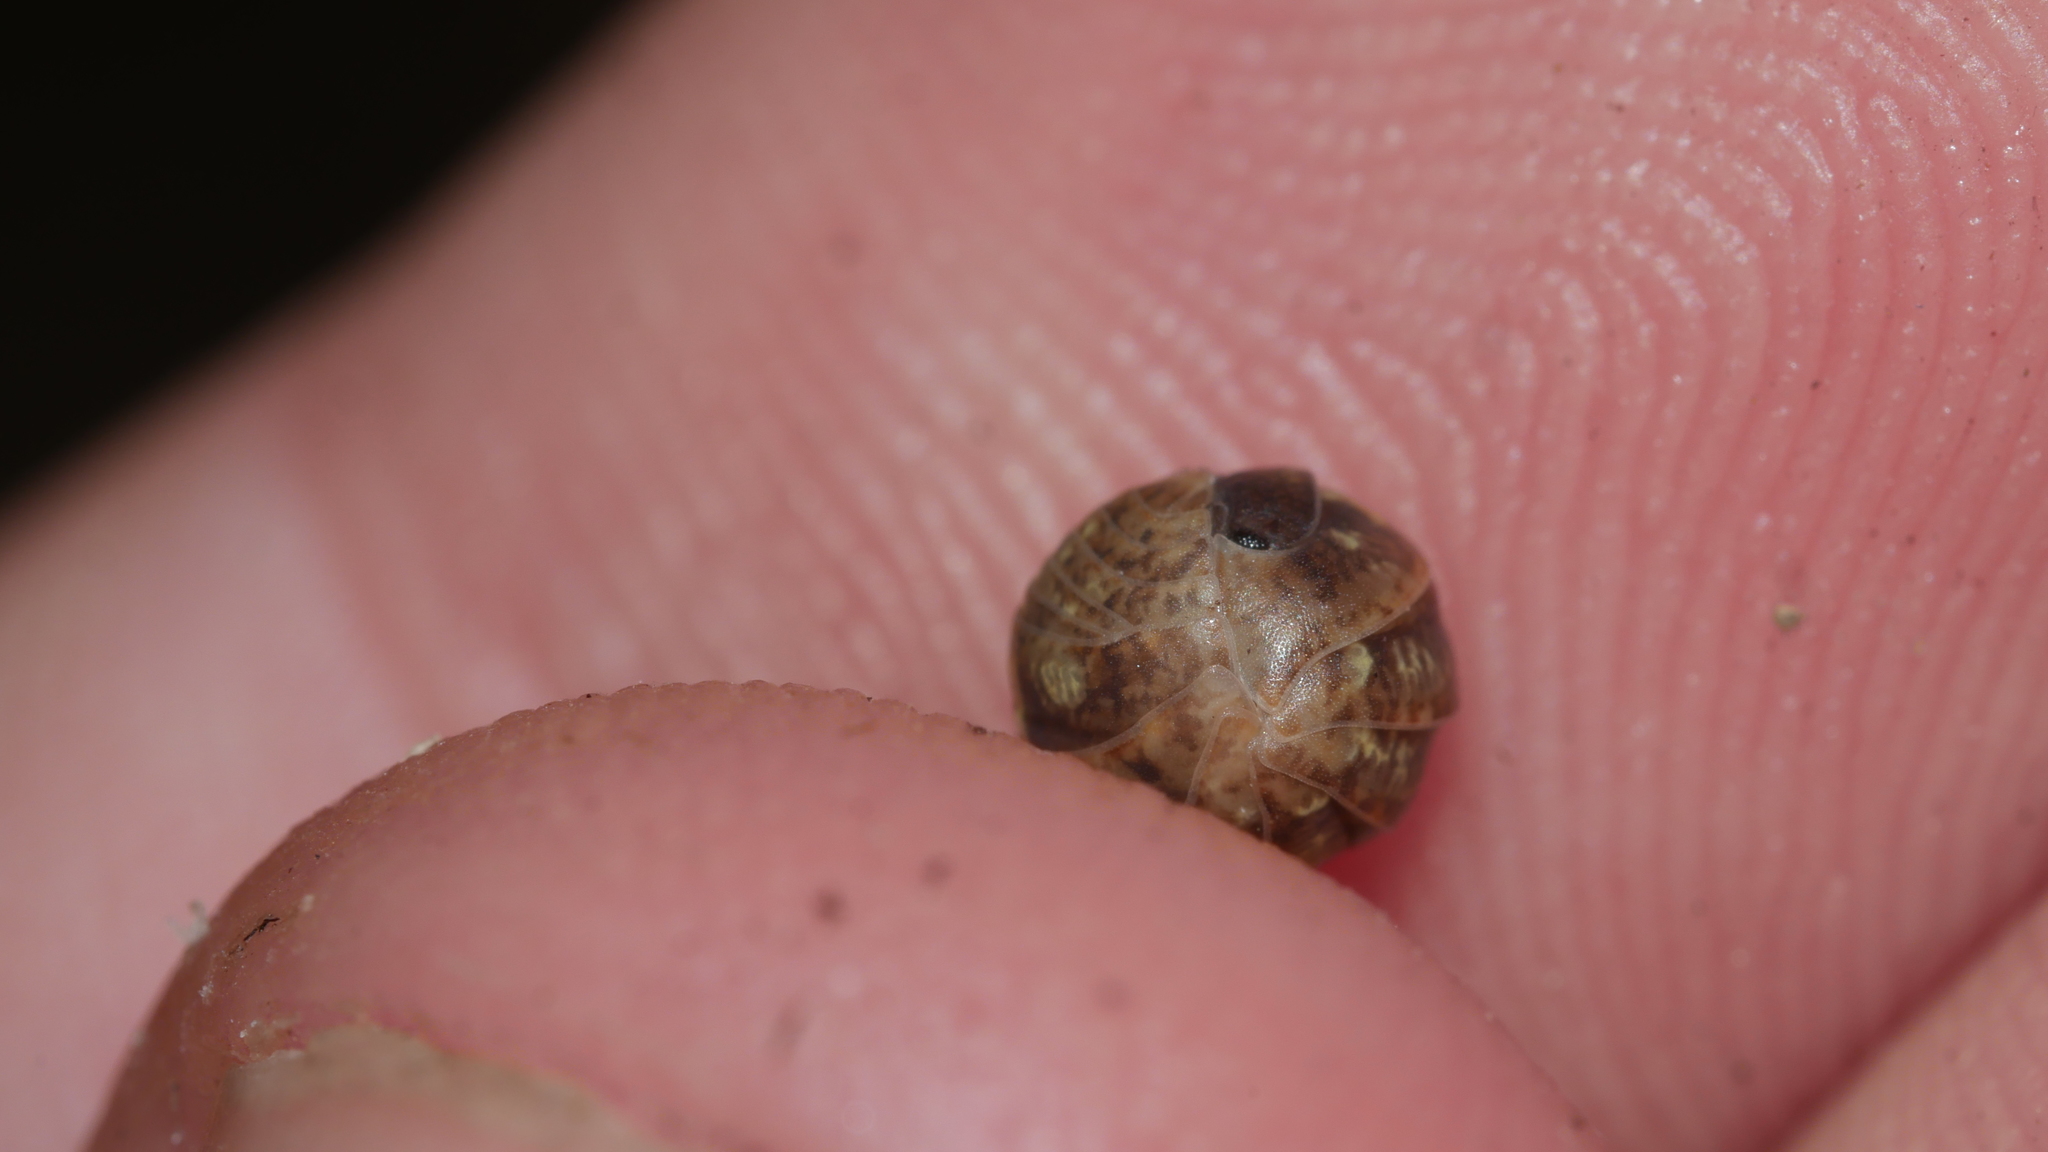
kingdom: Animalia
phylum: Arthropoda
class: Malacostraca
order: Isopoda
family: Armadillidiidae
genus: Armadillidium
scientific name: Armadillidium vulgare
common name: Common pill woodlouse
